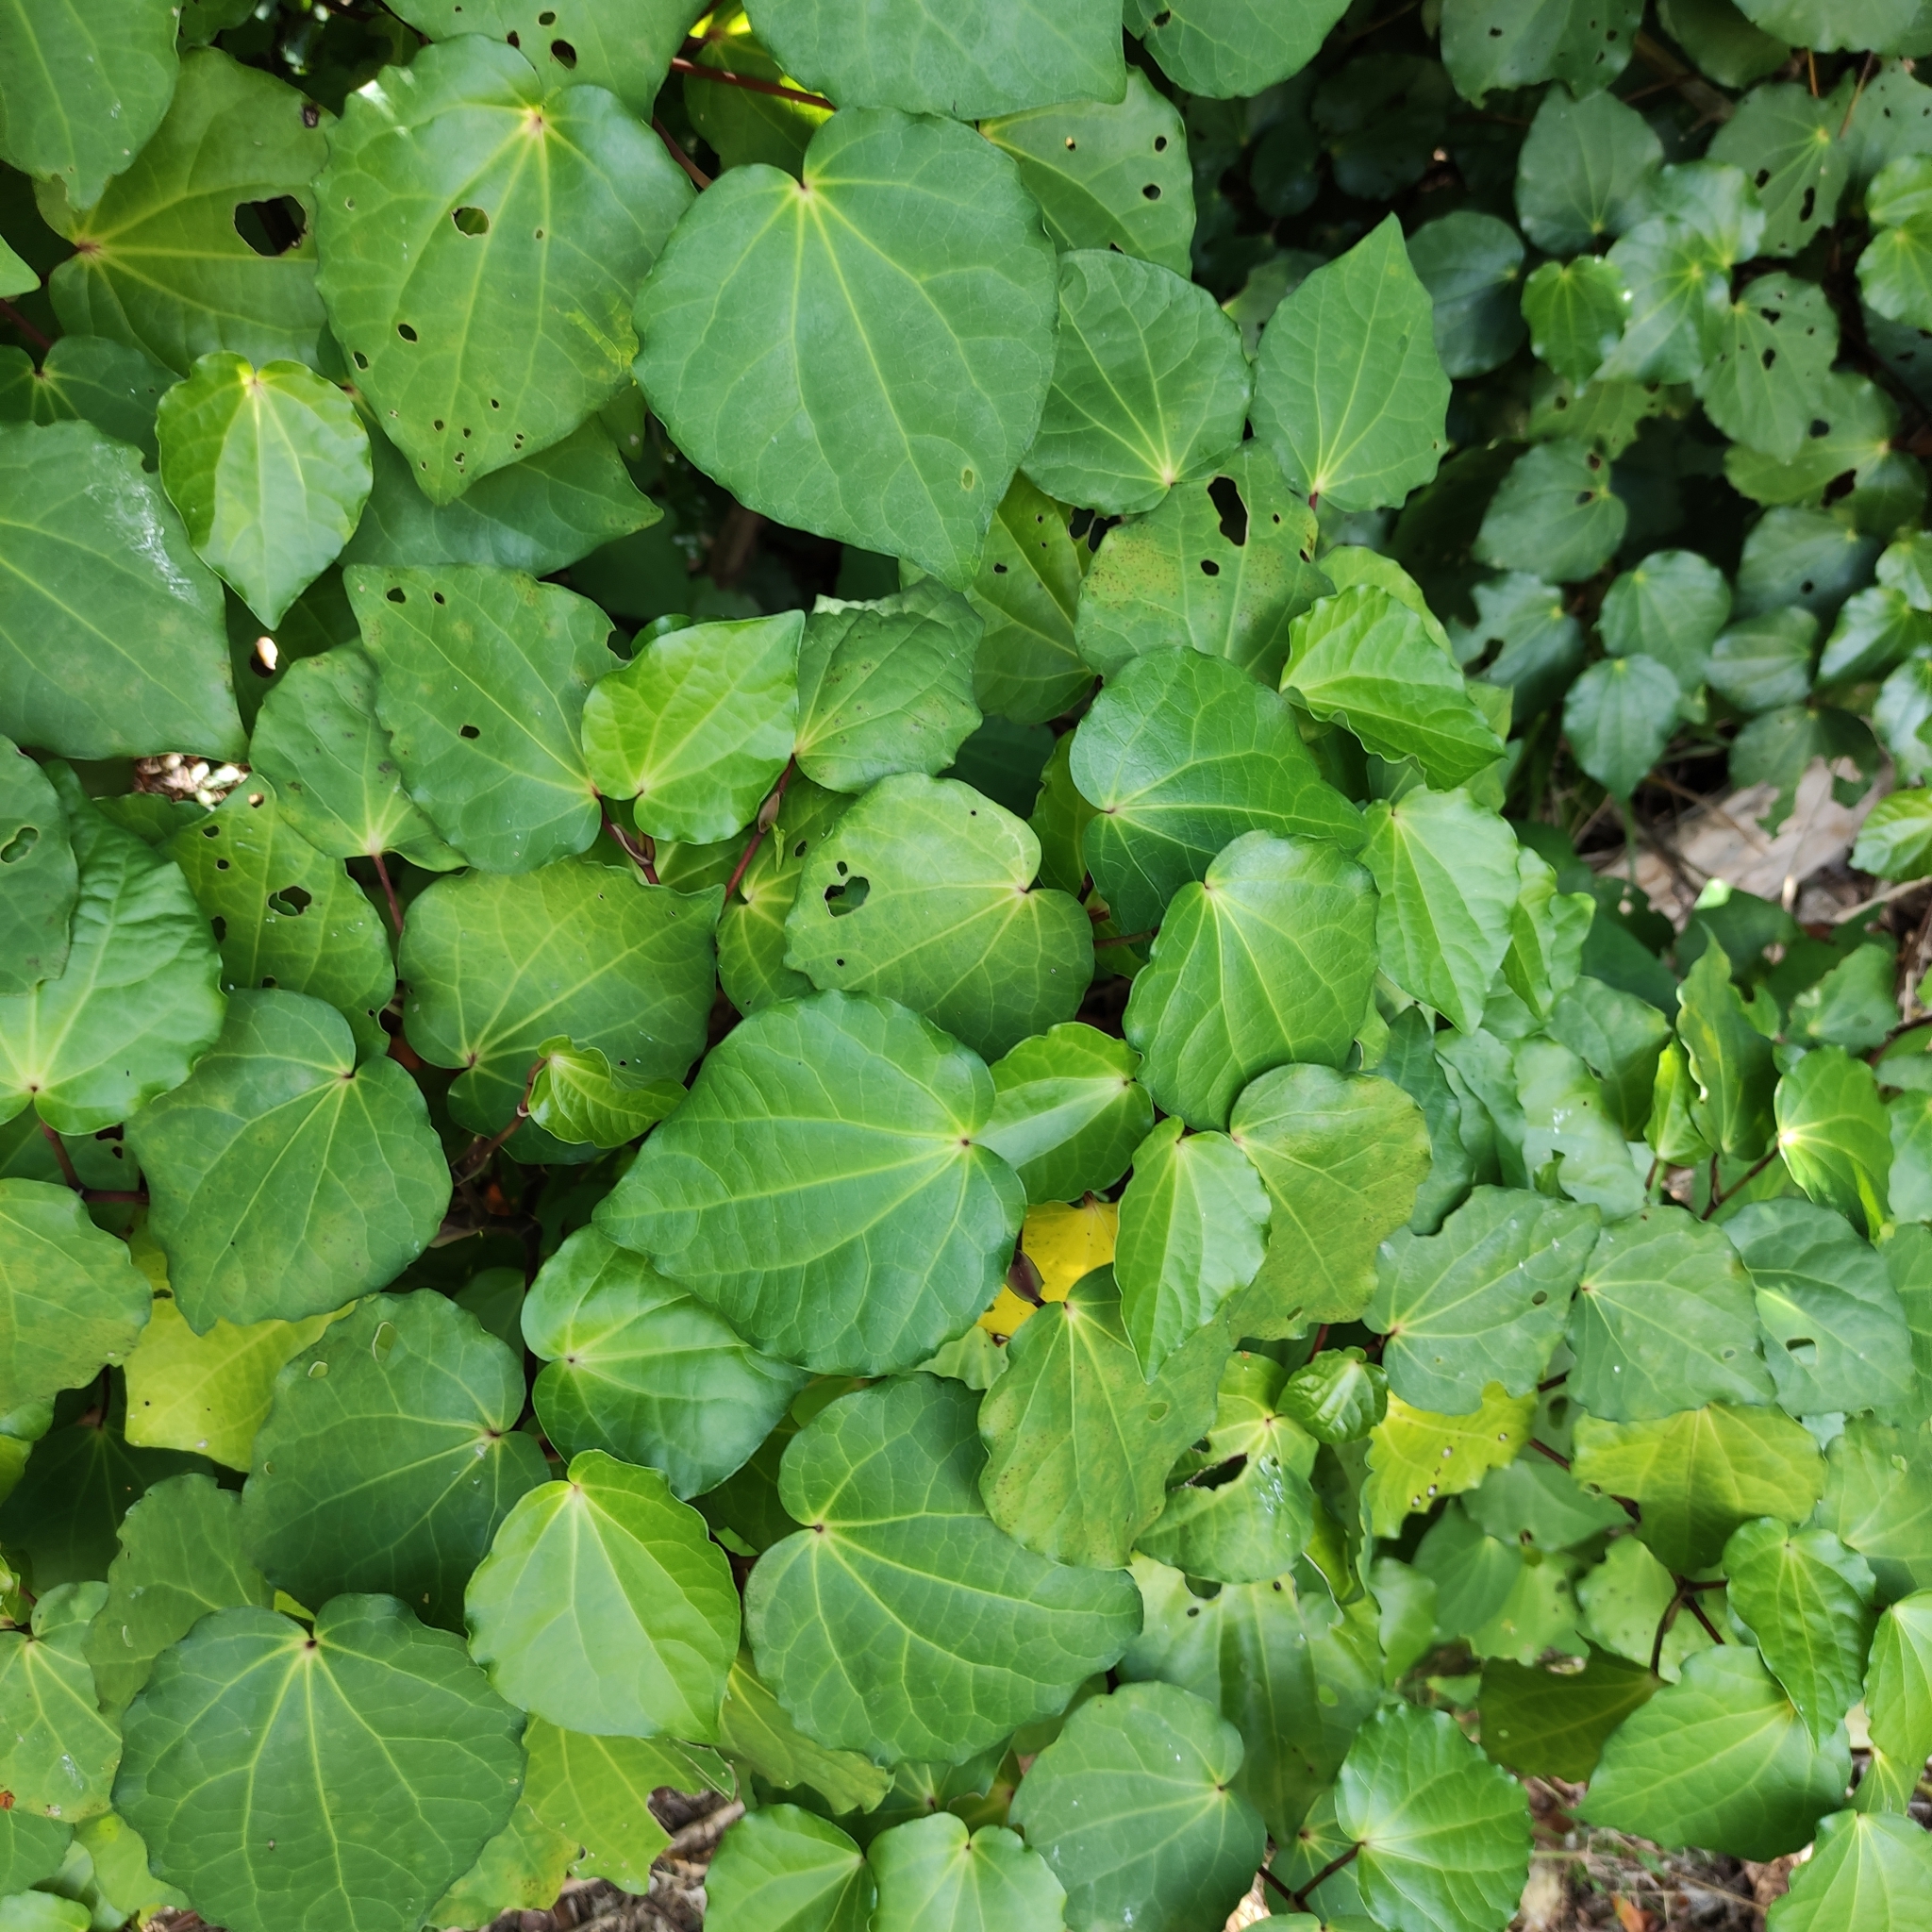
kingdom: Plantae
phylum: Tracheophyta
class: Magnoliopsida
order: Piperales
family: Piperaceae
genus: Macropiper
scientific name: Macropiper excelsum
